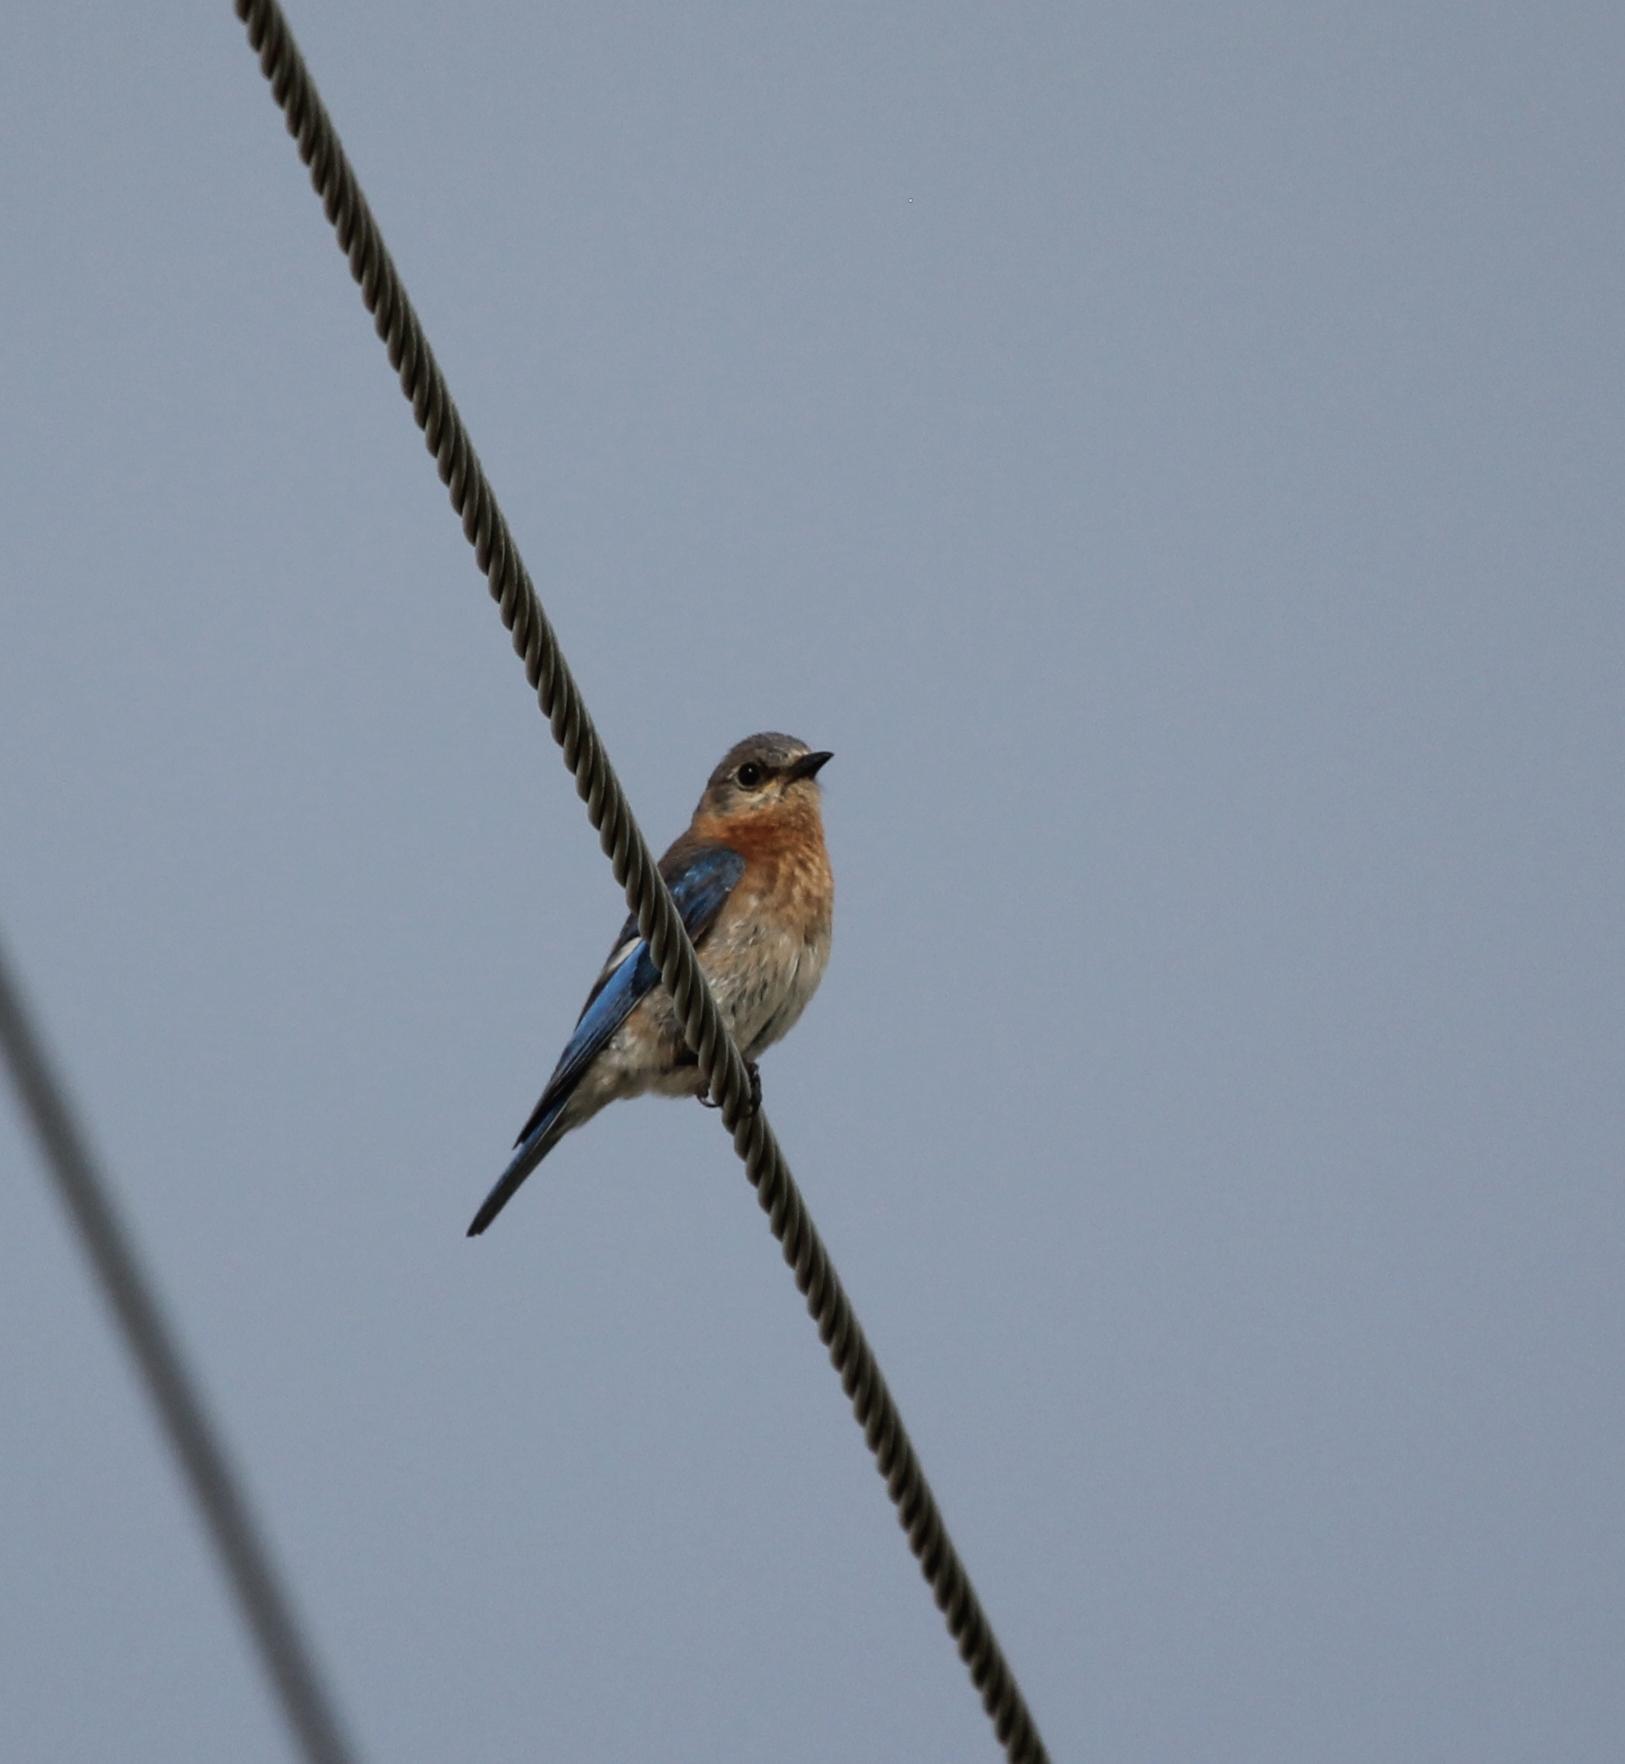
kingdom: Animalia
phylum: Chordata
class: Aves
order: Passeriformes
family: Turdidae
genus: Sialia
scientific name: Sialia sialis
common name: Eastern bluebird
